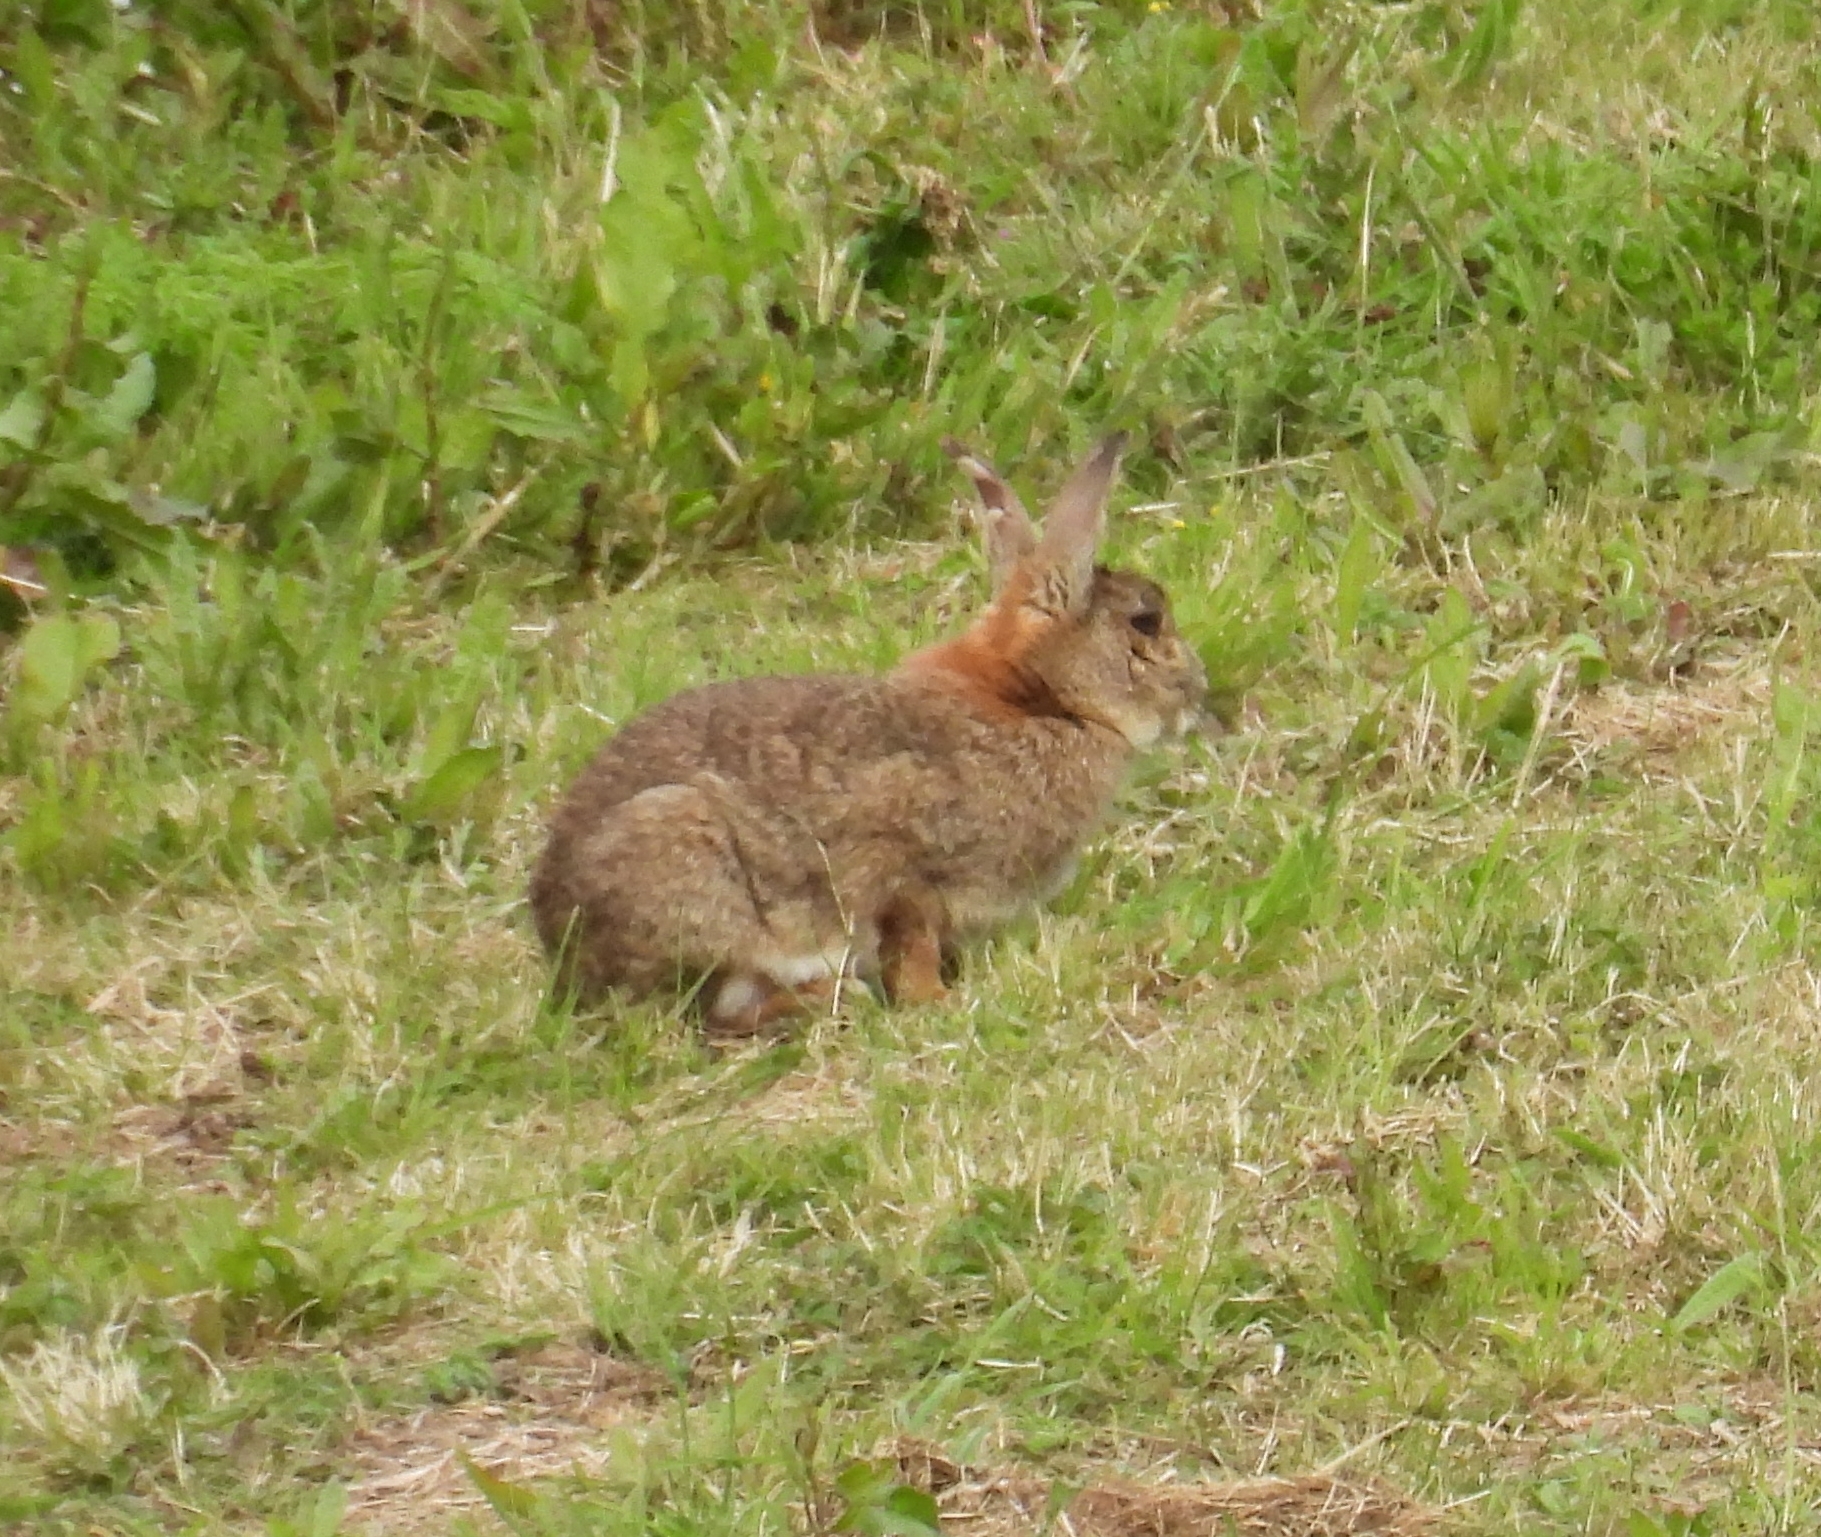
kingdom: Animalia
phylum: Chordata
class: Mammalia
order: Lagomorpha
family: Leporidae
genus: Oryctolagus
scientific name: Oryctolagus cuniculus
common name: European rabbit
